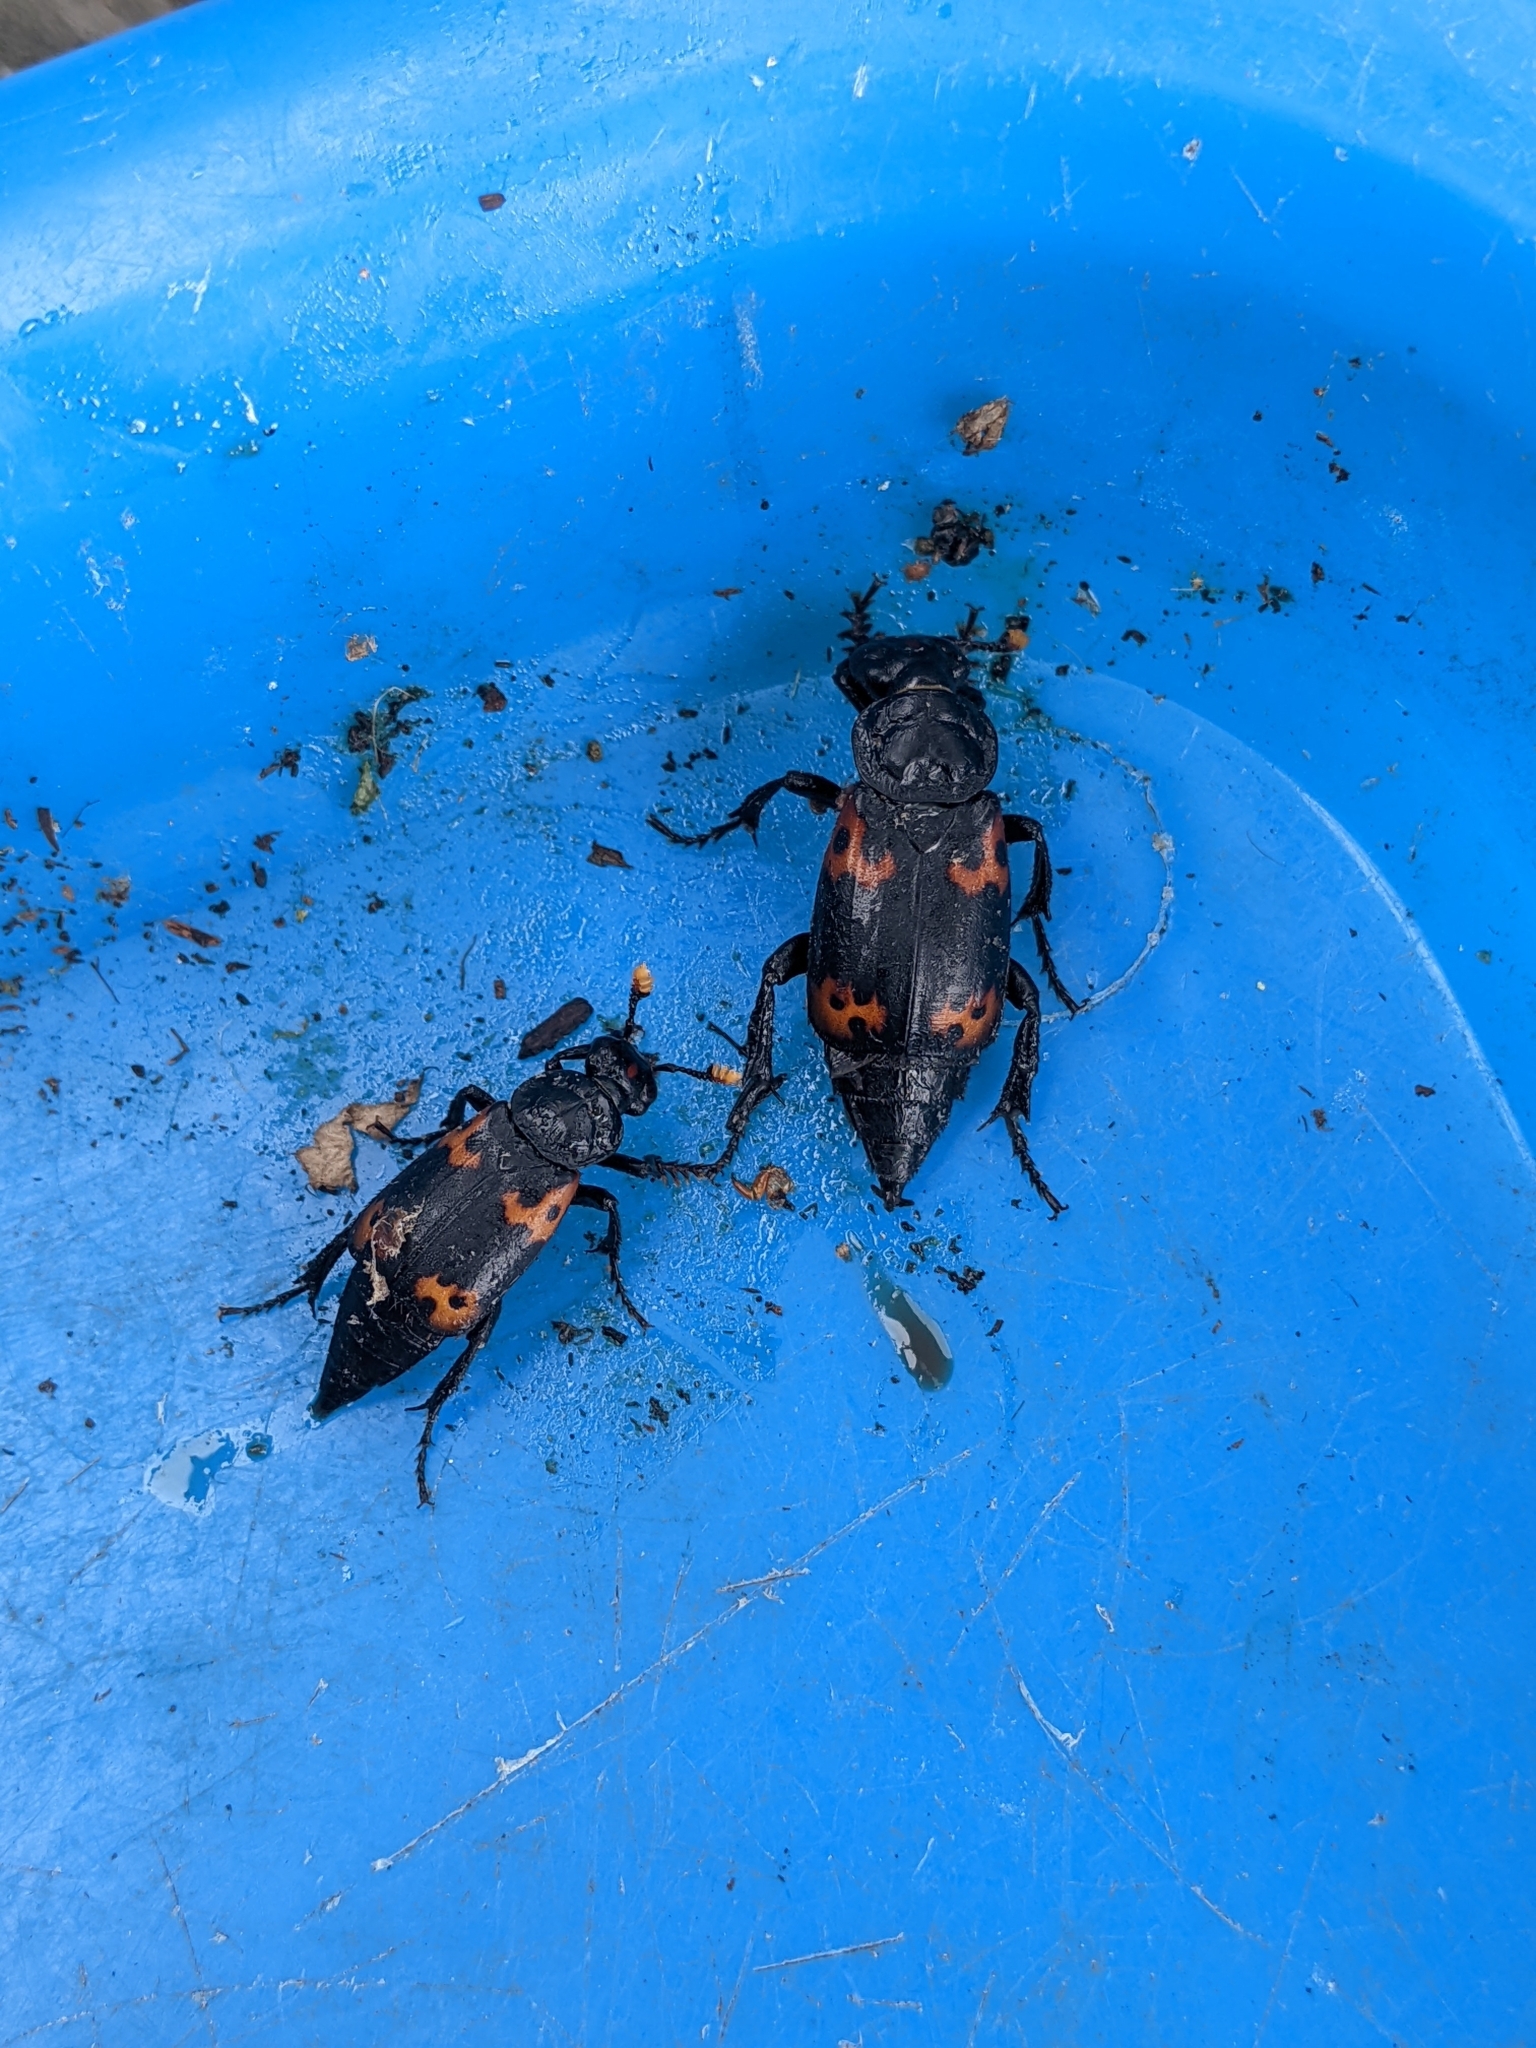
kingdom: Animalia
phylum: Arthropoda
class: Insecta
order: Coleoptera
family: Staphylinidae
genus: Nicrophorus
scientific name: Nicrophorus nepalensis
